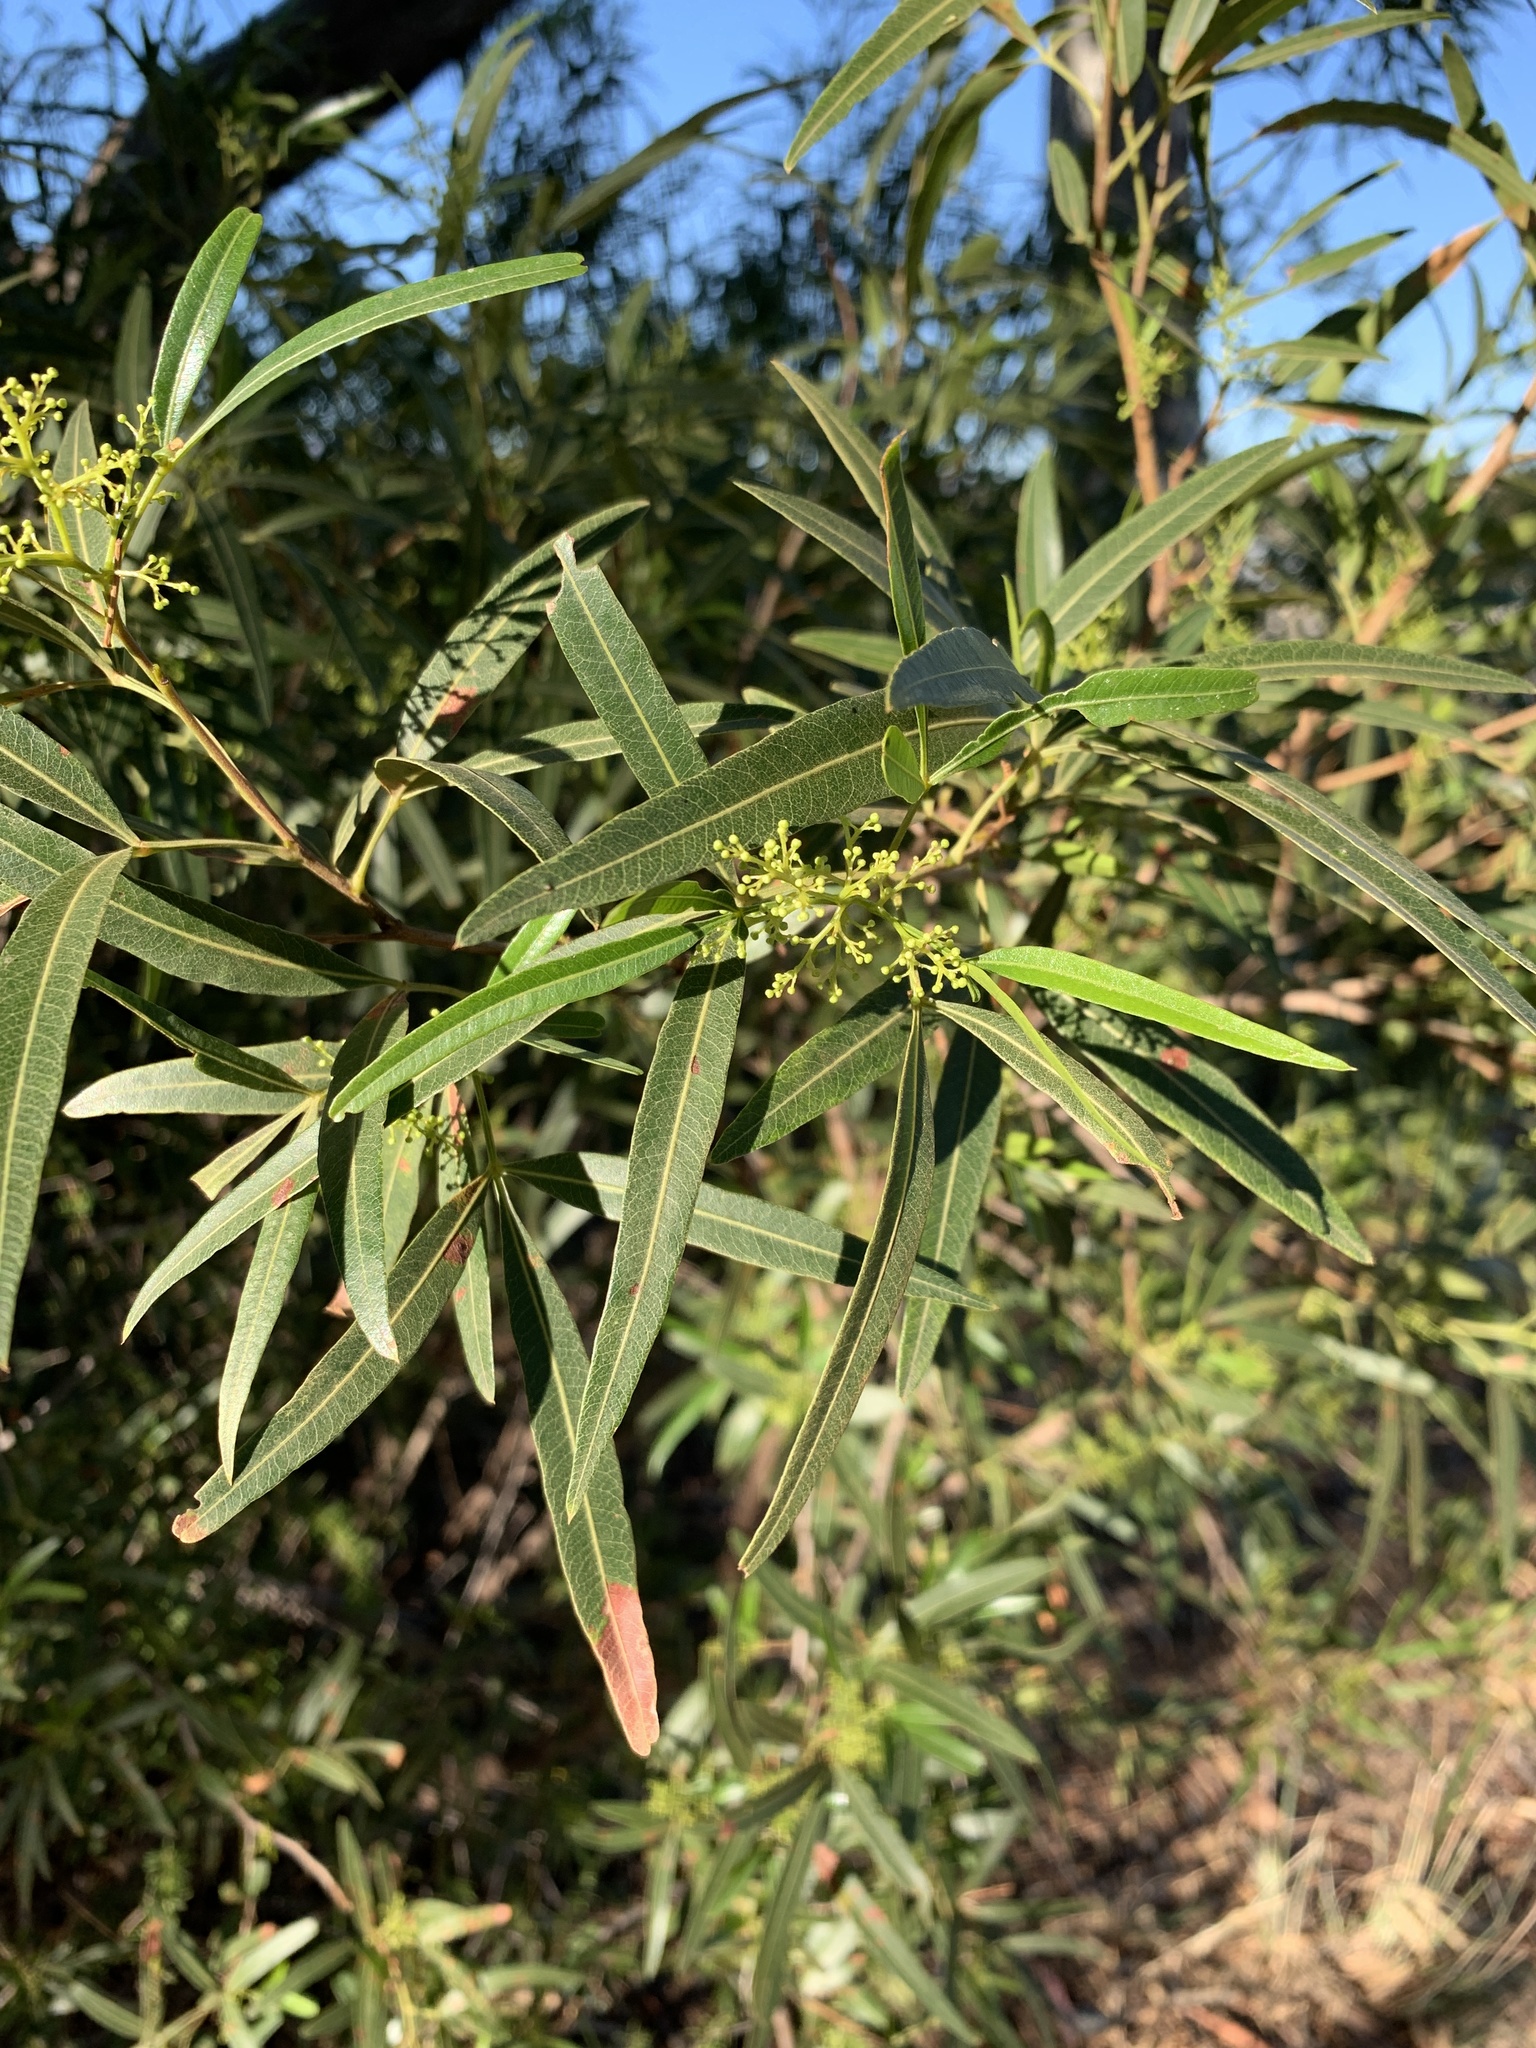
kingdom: Plantae
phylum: Tracheophyta
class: Magnoliopsida
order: Sapindales
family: Anacardiaceae
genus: Searsia
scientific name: Searsia lancea
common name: Cashew
